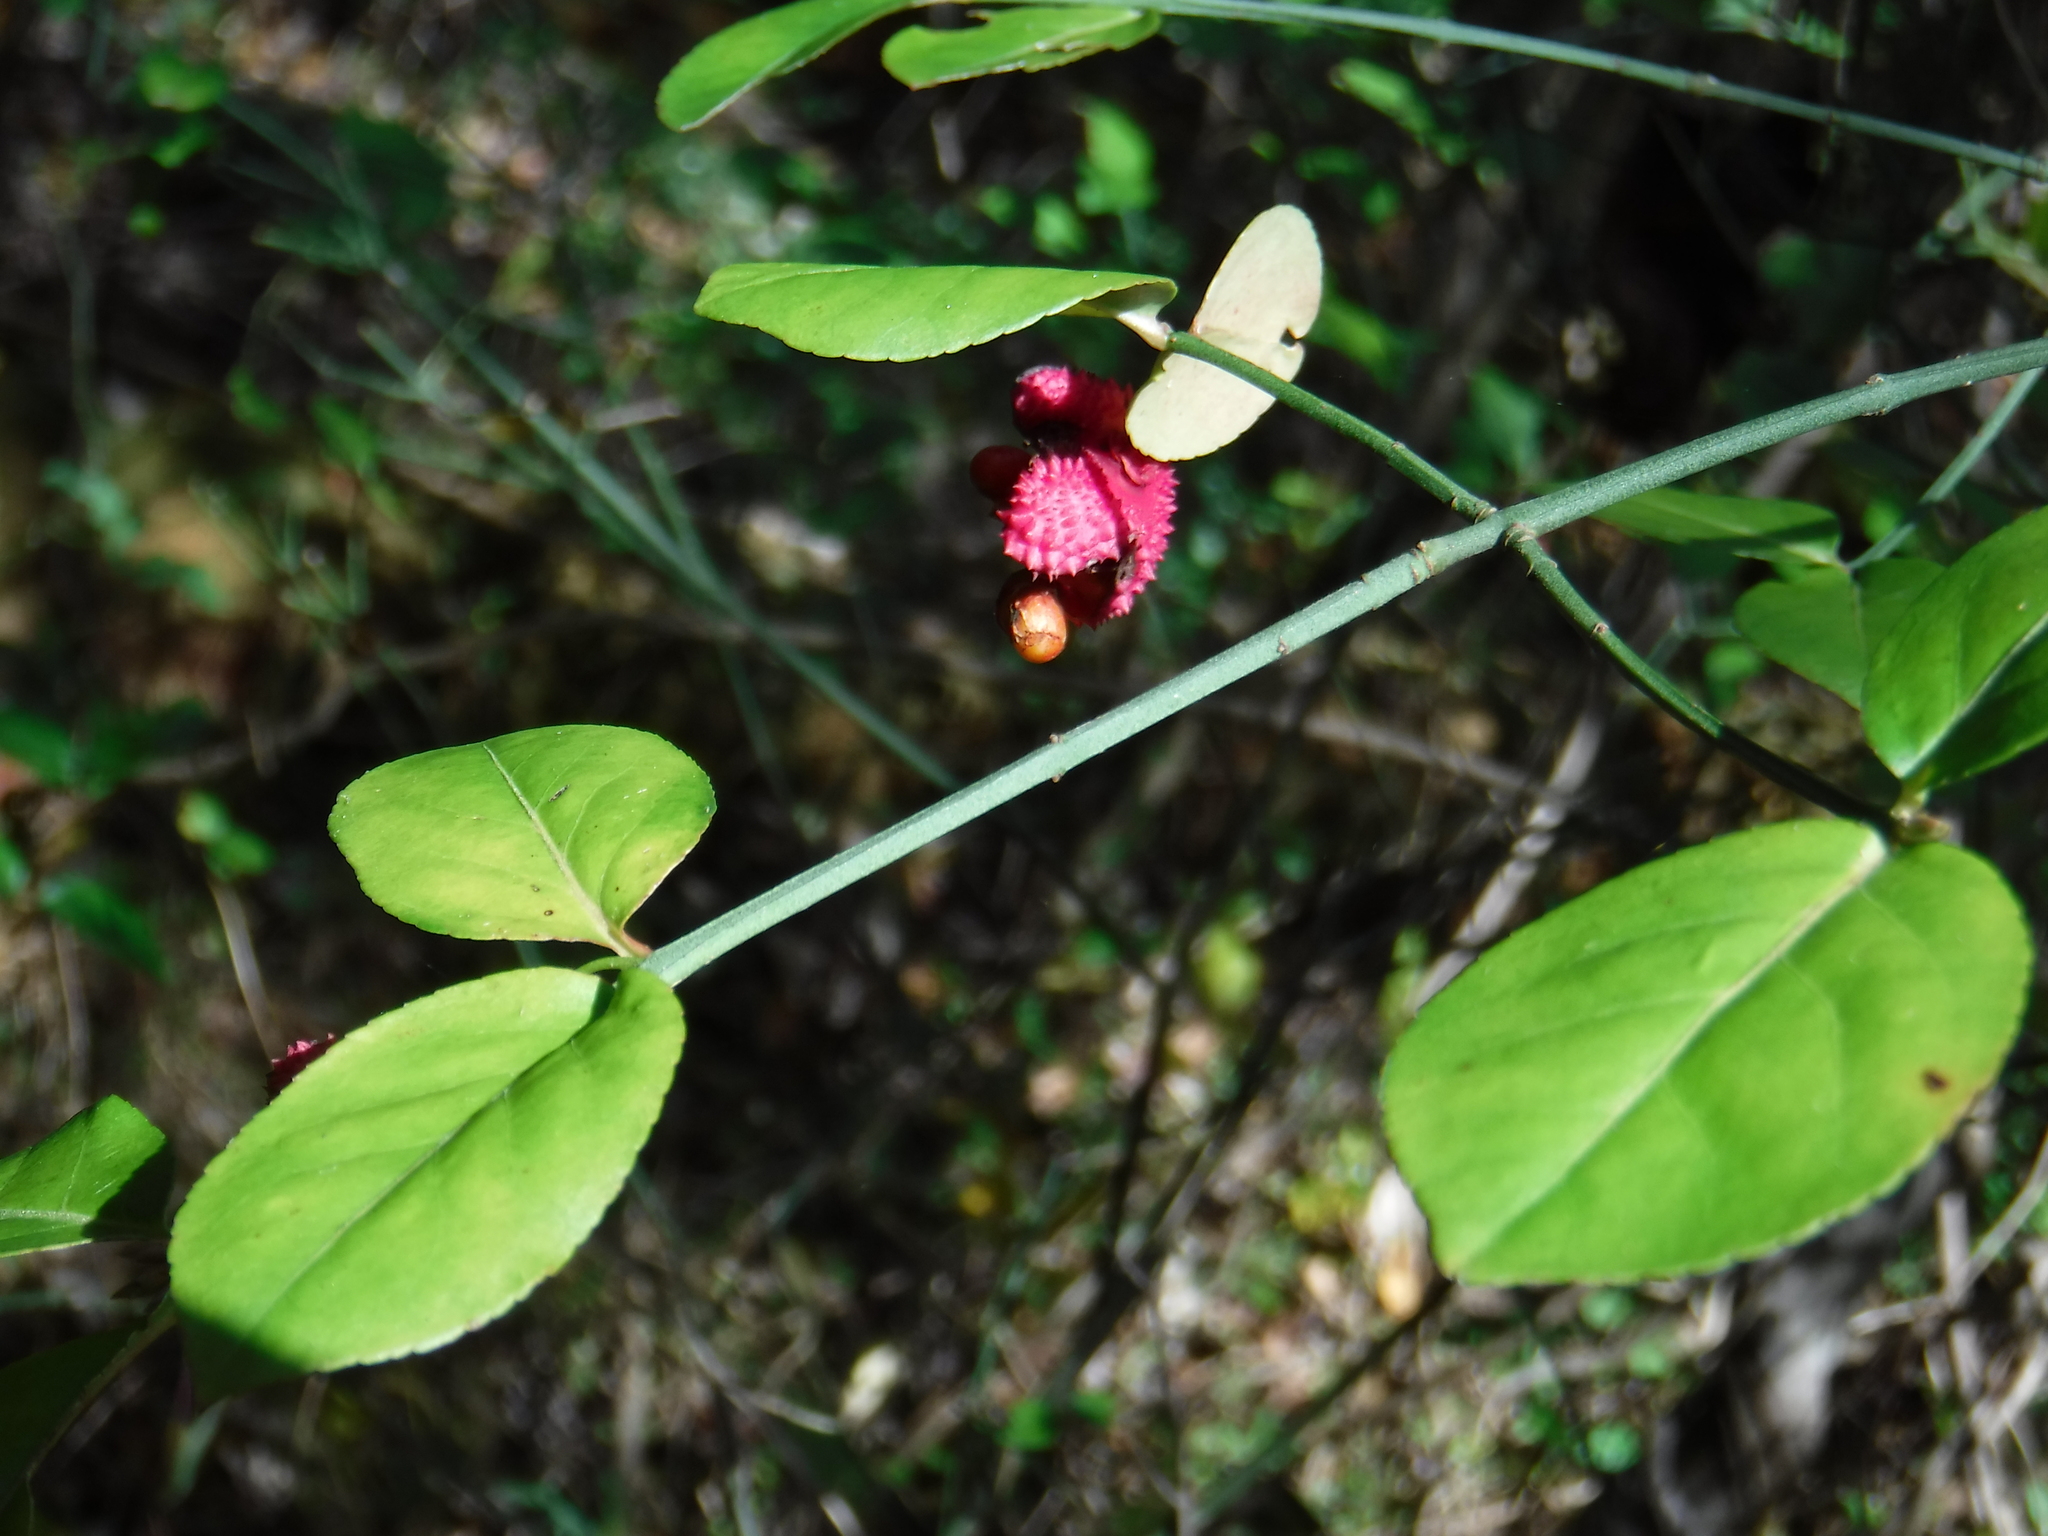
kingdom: Plantae
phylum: Tracheophyta
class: Magnoliopsida
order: Celastrales
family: Celastraceae
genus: Euonymus
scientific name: Euonymus americanus
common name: Bursting-heart
